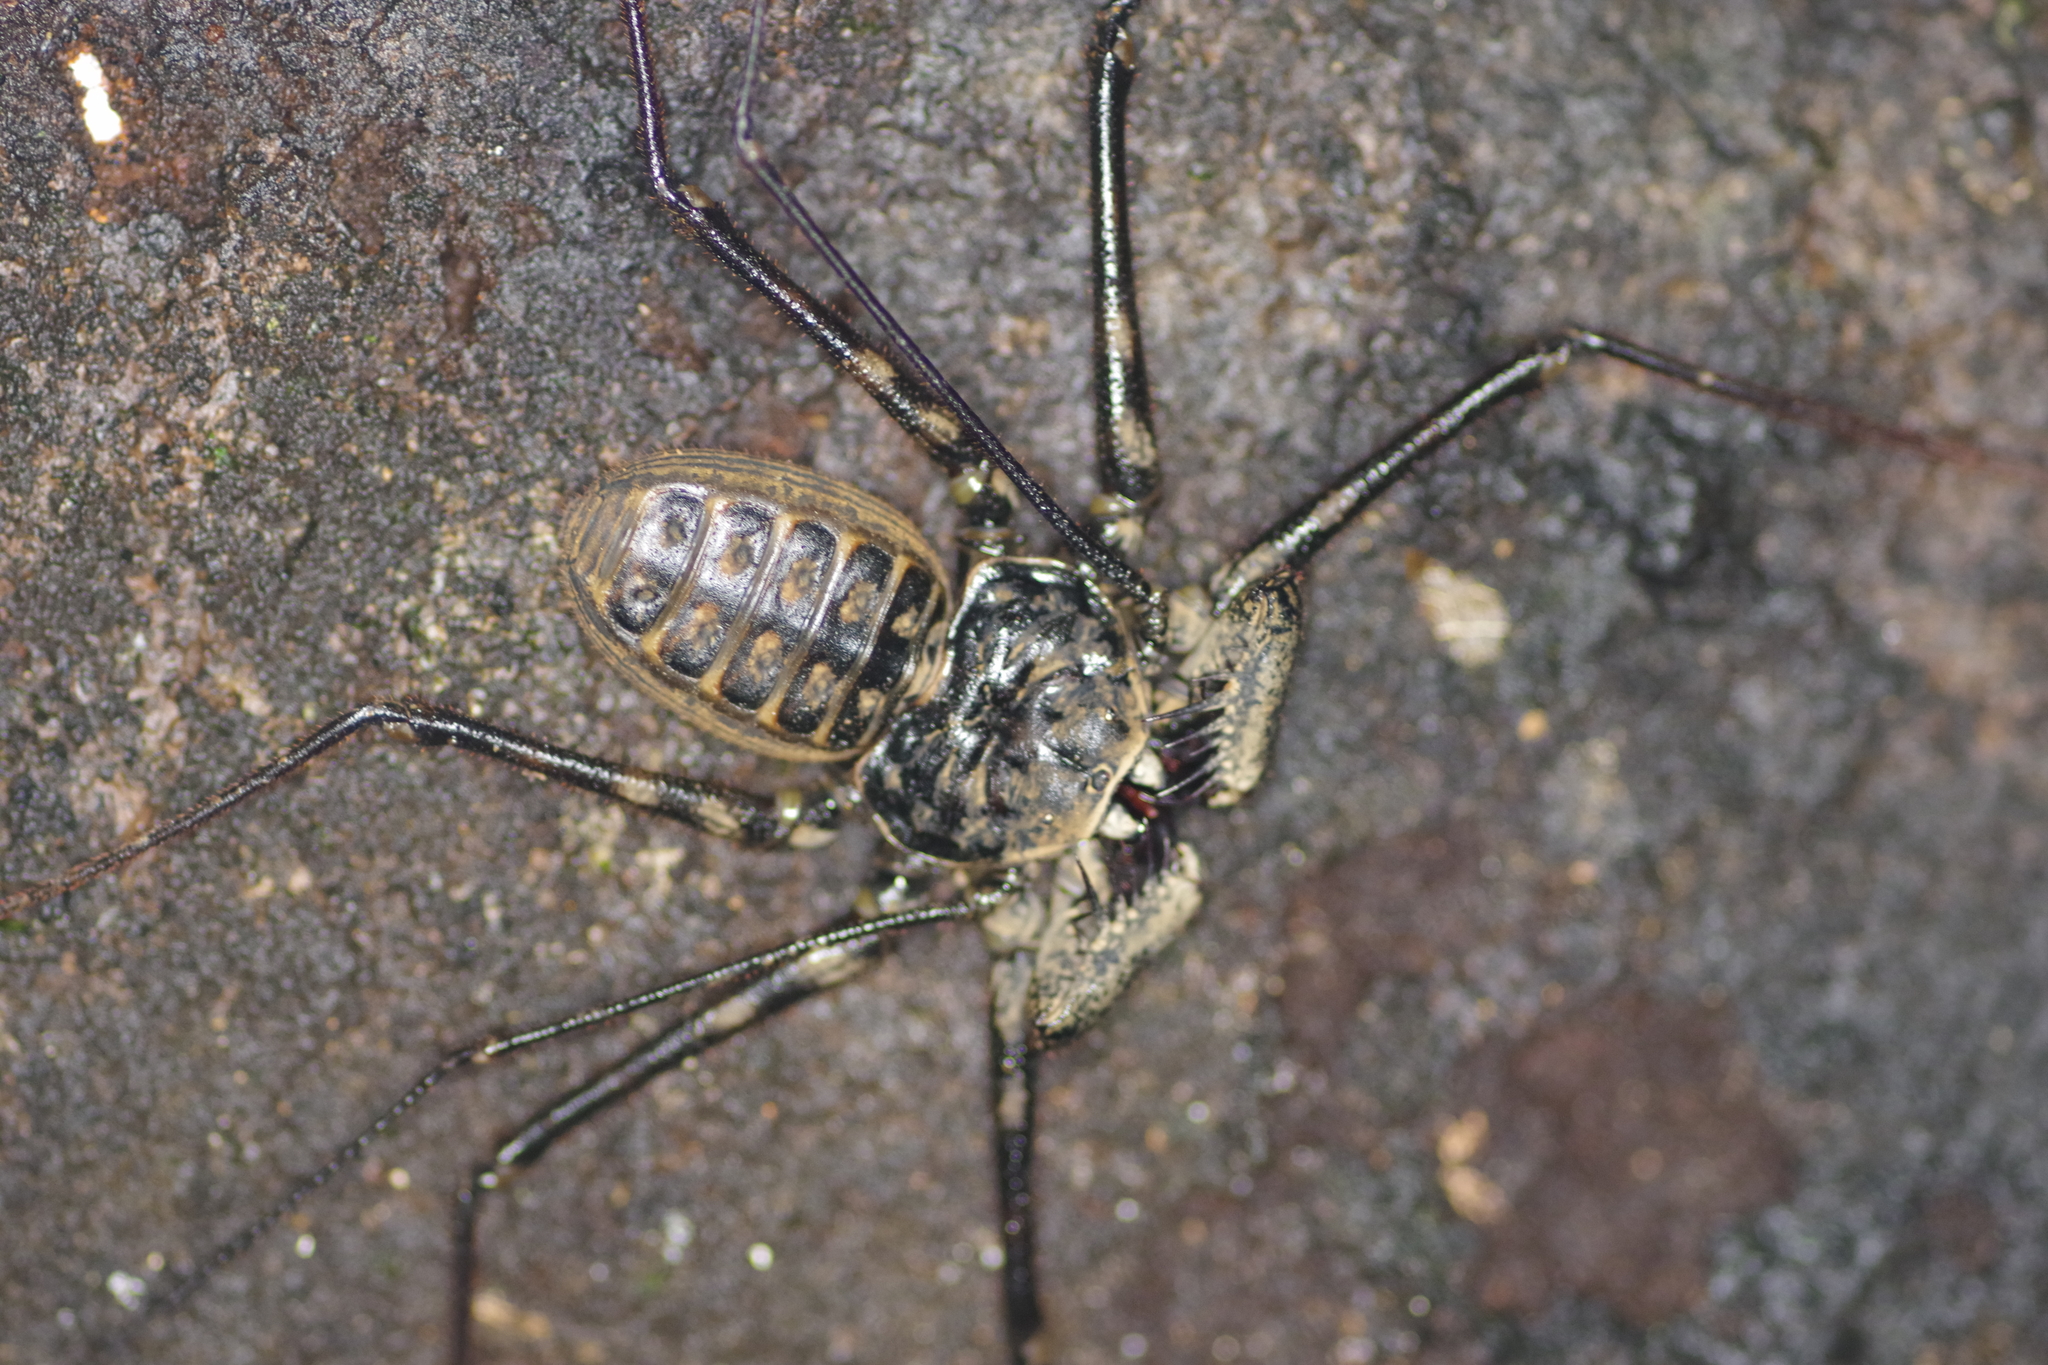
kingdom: Animalia
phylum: Arthropoda
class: Arachnida
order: Amblypygi
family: Phrynidae
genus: Paraphrynus
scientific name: Paraphrynus laevifrons
